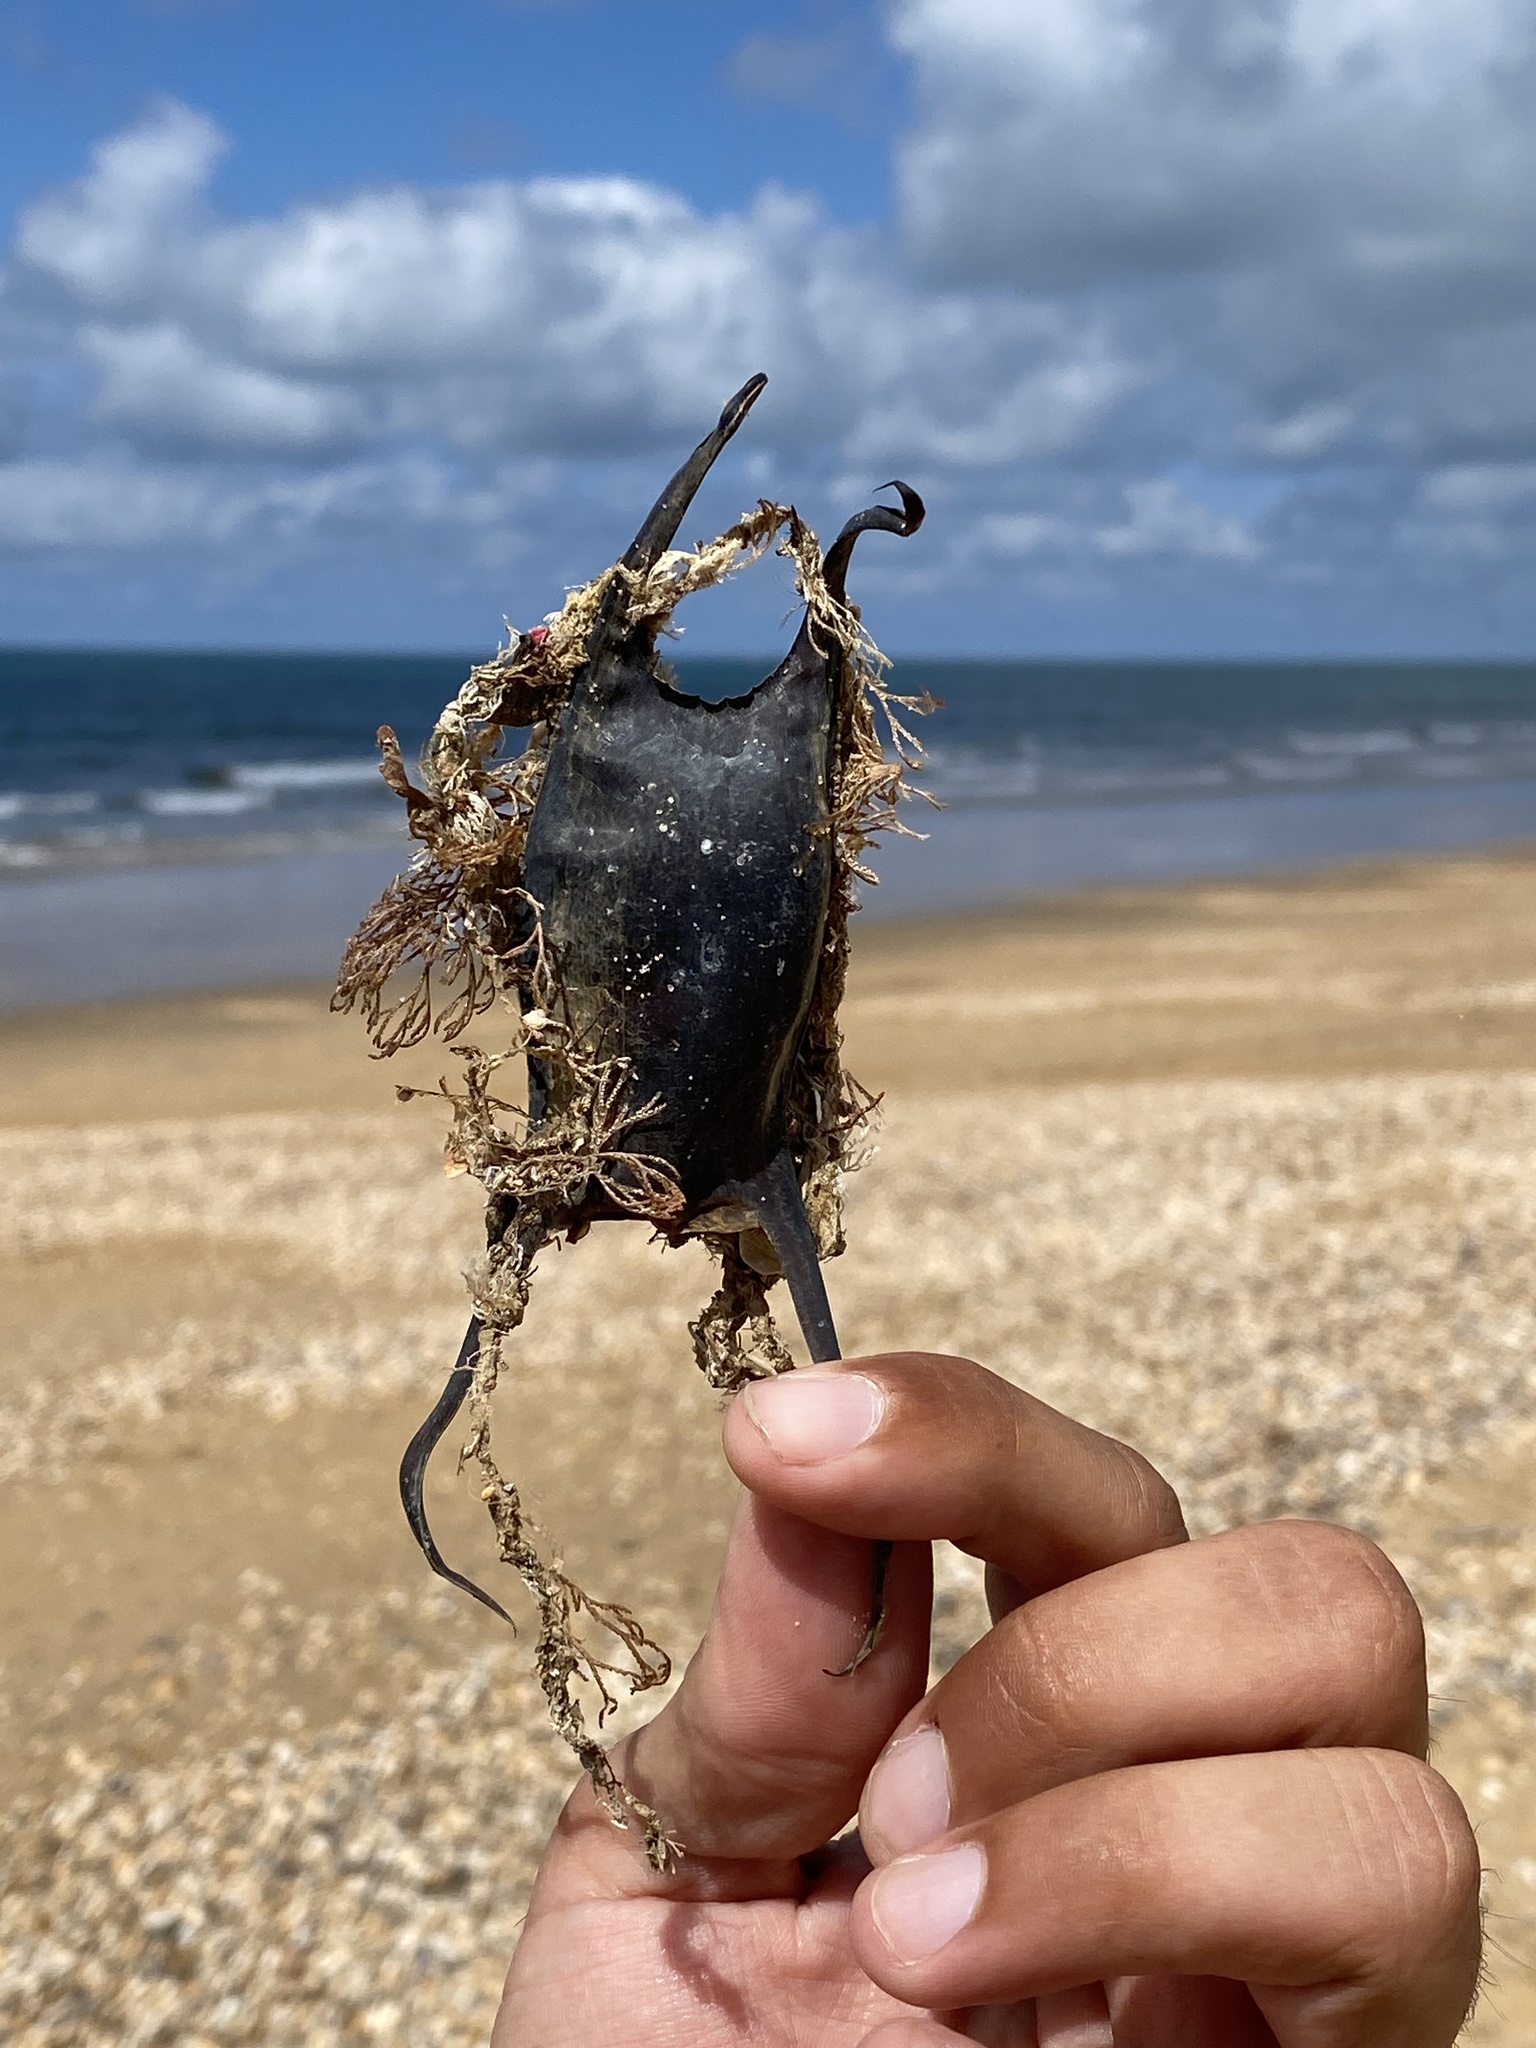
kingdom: Animalia
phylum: Chordata
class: Elasmobranchii
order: Rajiformes
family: Rajidae
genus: Raja
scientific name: Raja undulata
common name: Undulate ray
